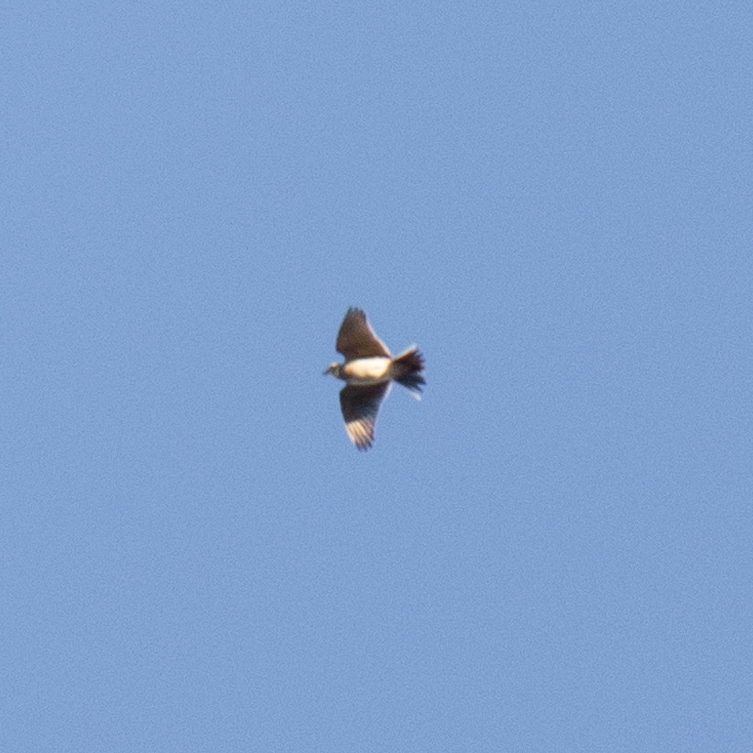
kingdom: Animalia
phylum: Chordata
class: Aves
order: Passeriformes
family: Alaudidae
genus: Alauda
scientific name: Alauda arvensis
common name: Eurasian skylark
